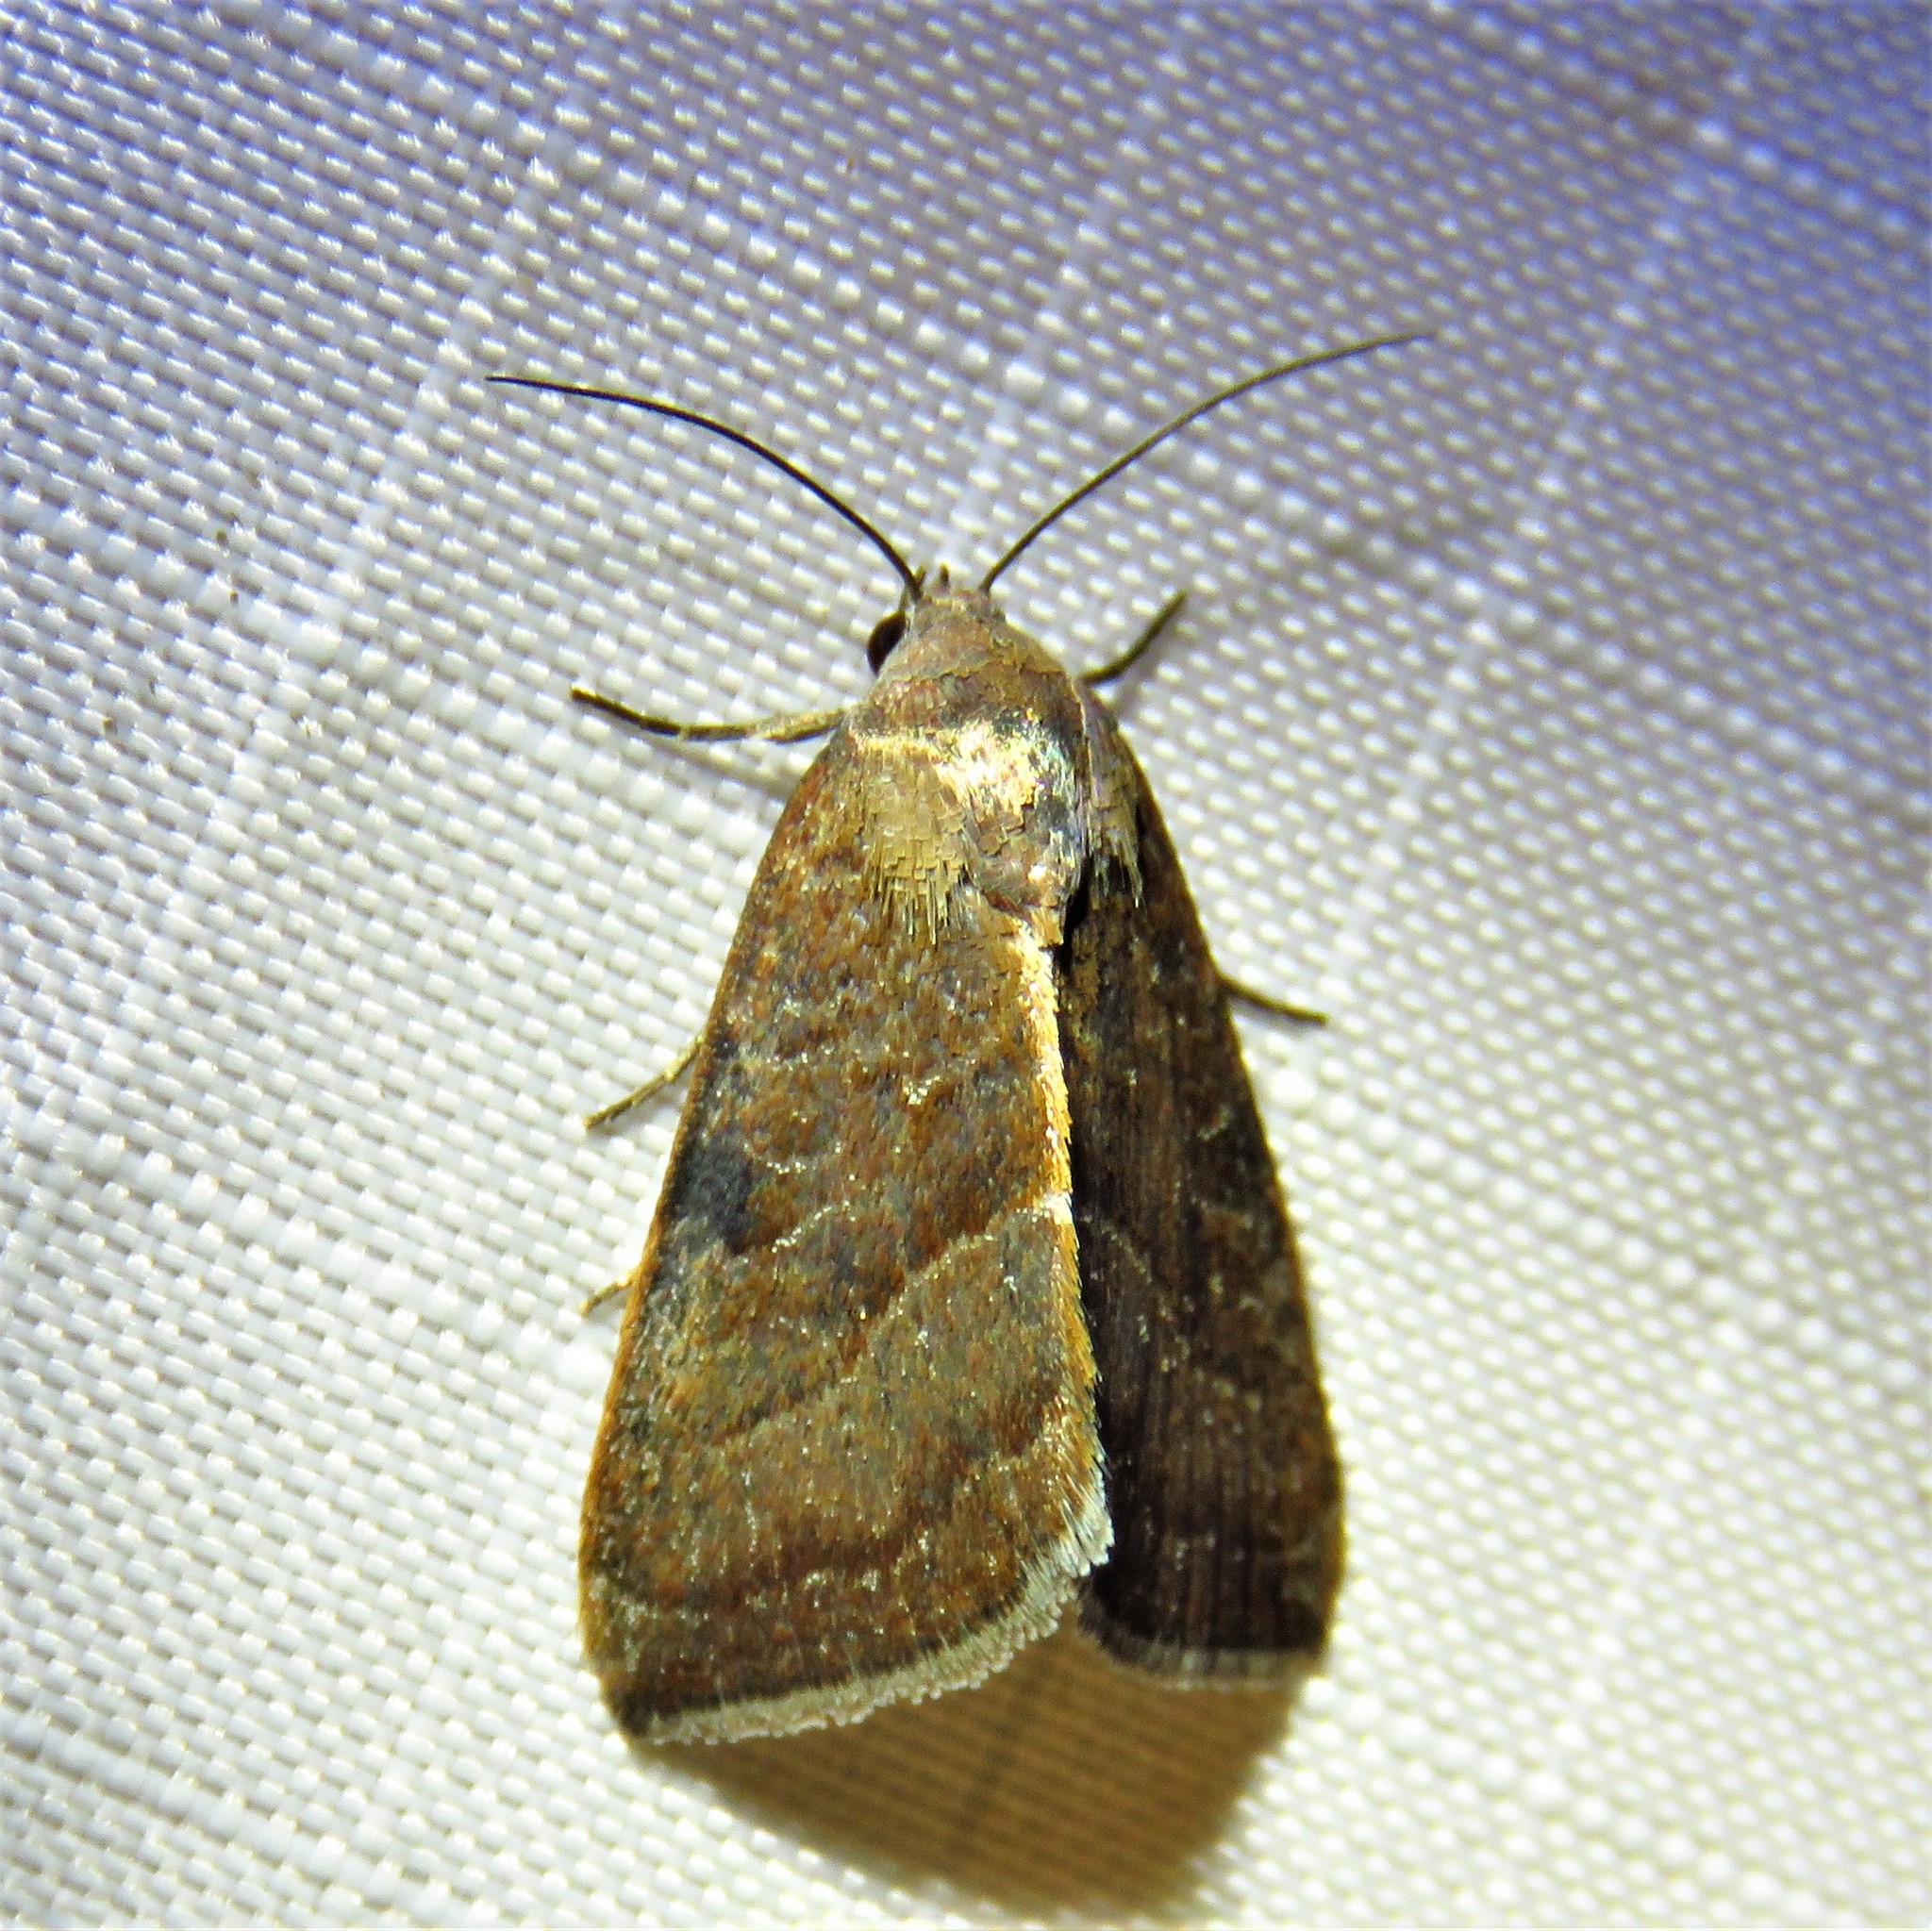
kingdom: Animalia
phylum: Arthropoda
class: Insecta
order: Lepidoptera
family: Noctuidae
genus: Galgula
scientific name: Galgula partita
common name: Wedgeling
